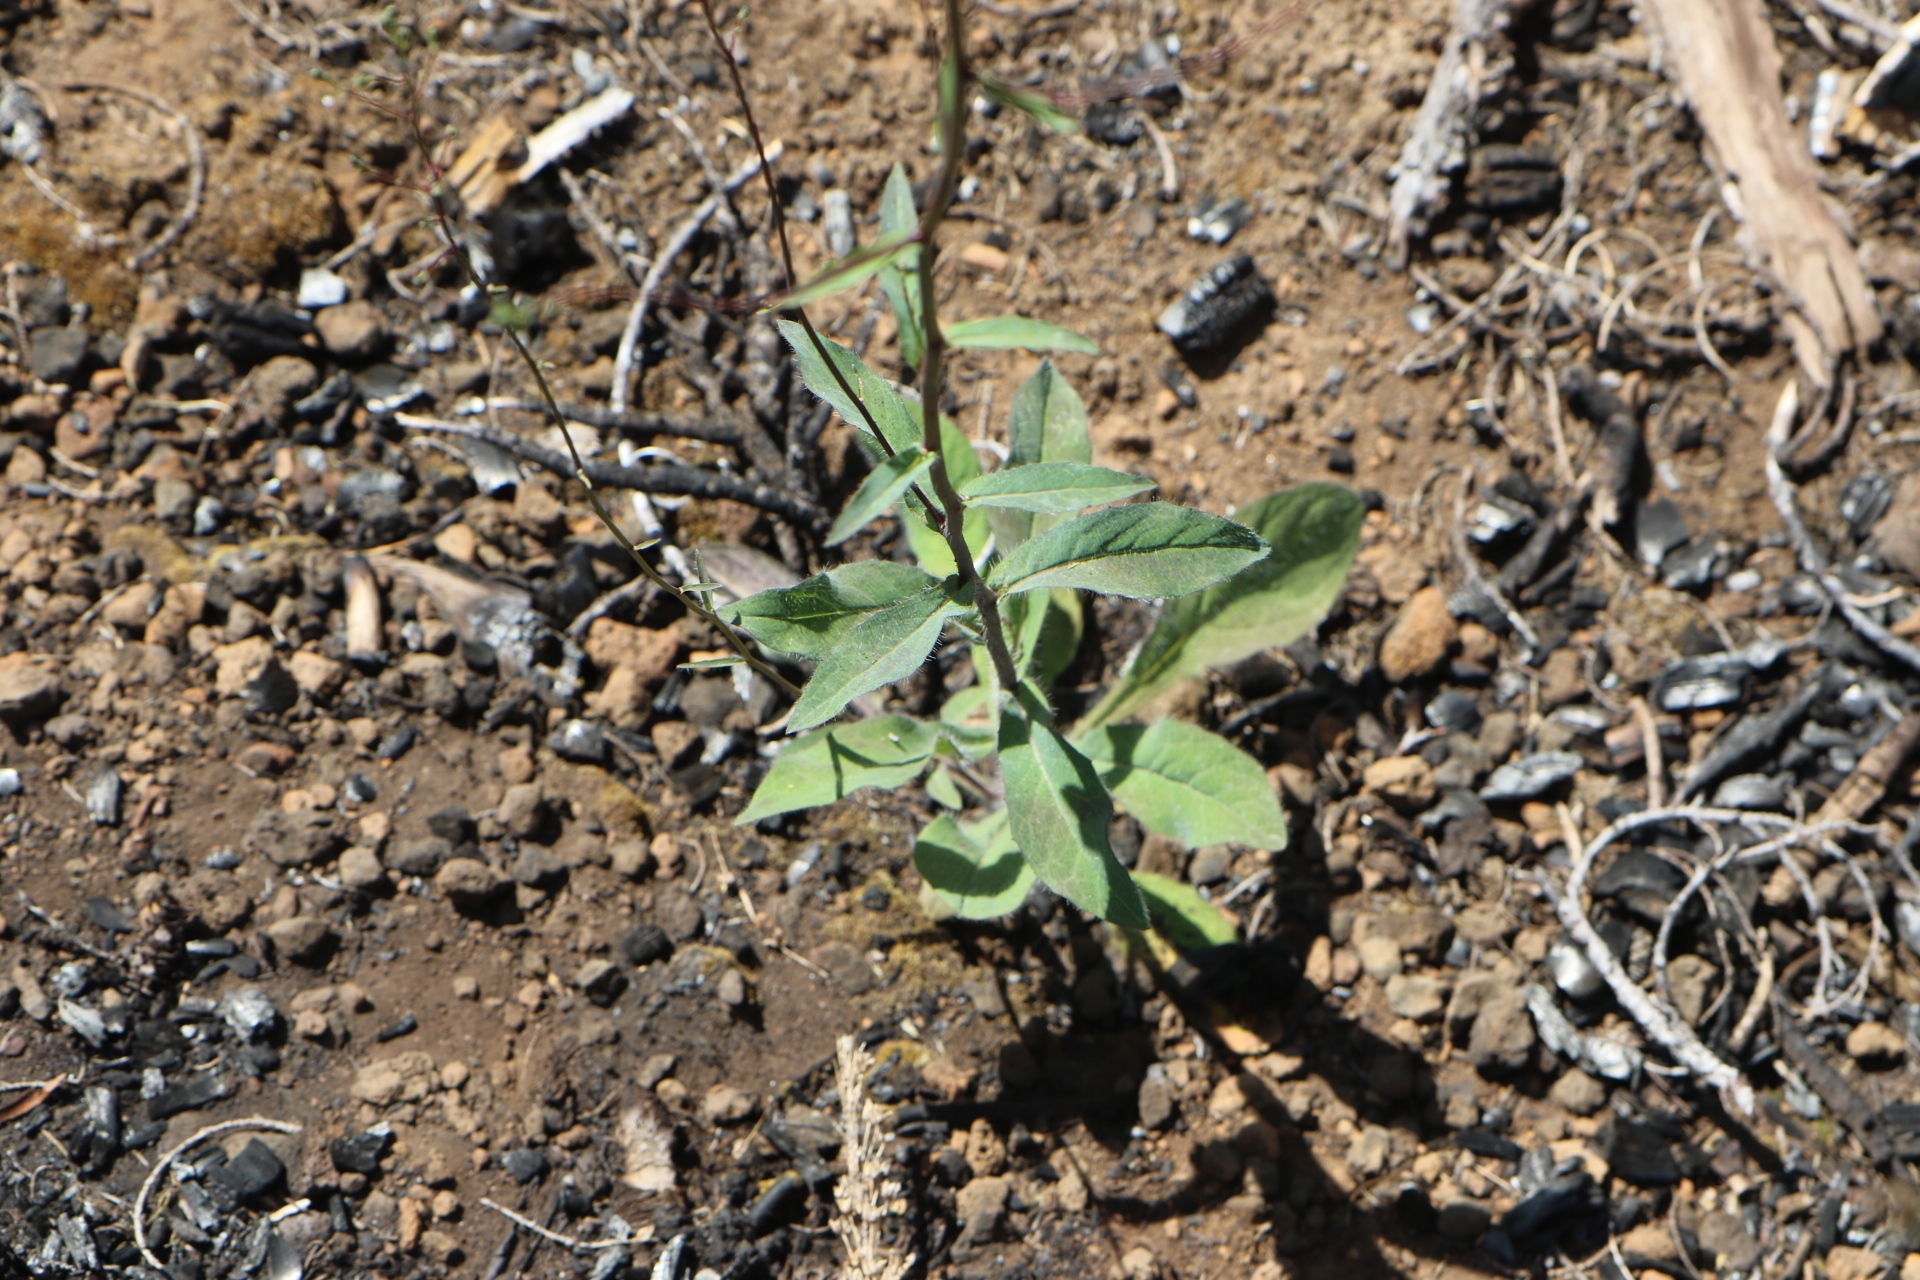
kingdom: Plantae
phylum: Tracheophyta
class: Magnoliopsida
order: Asterales
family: Asteraceae
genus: Hieracium
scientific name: Hieracium albiflorum
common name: White hawkweed
